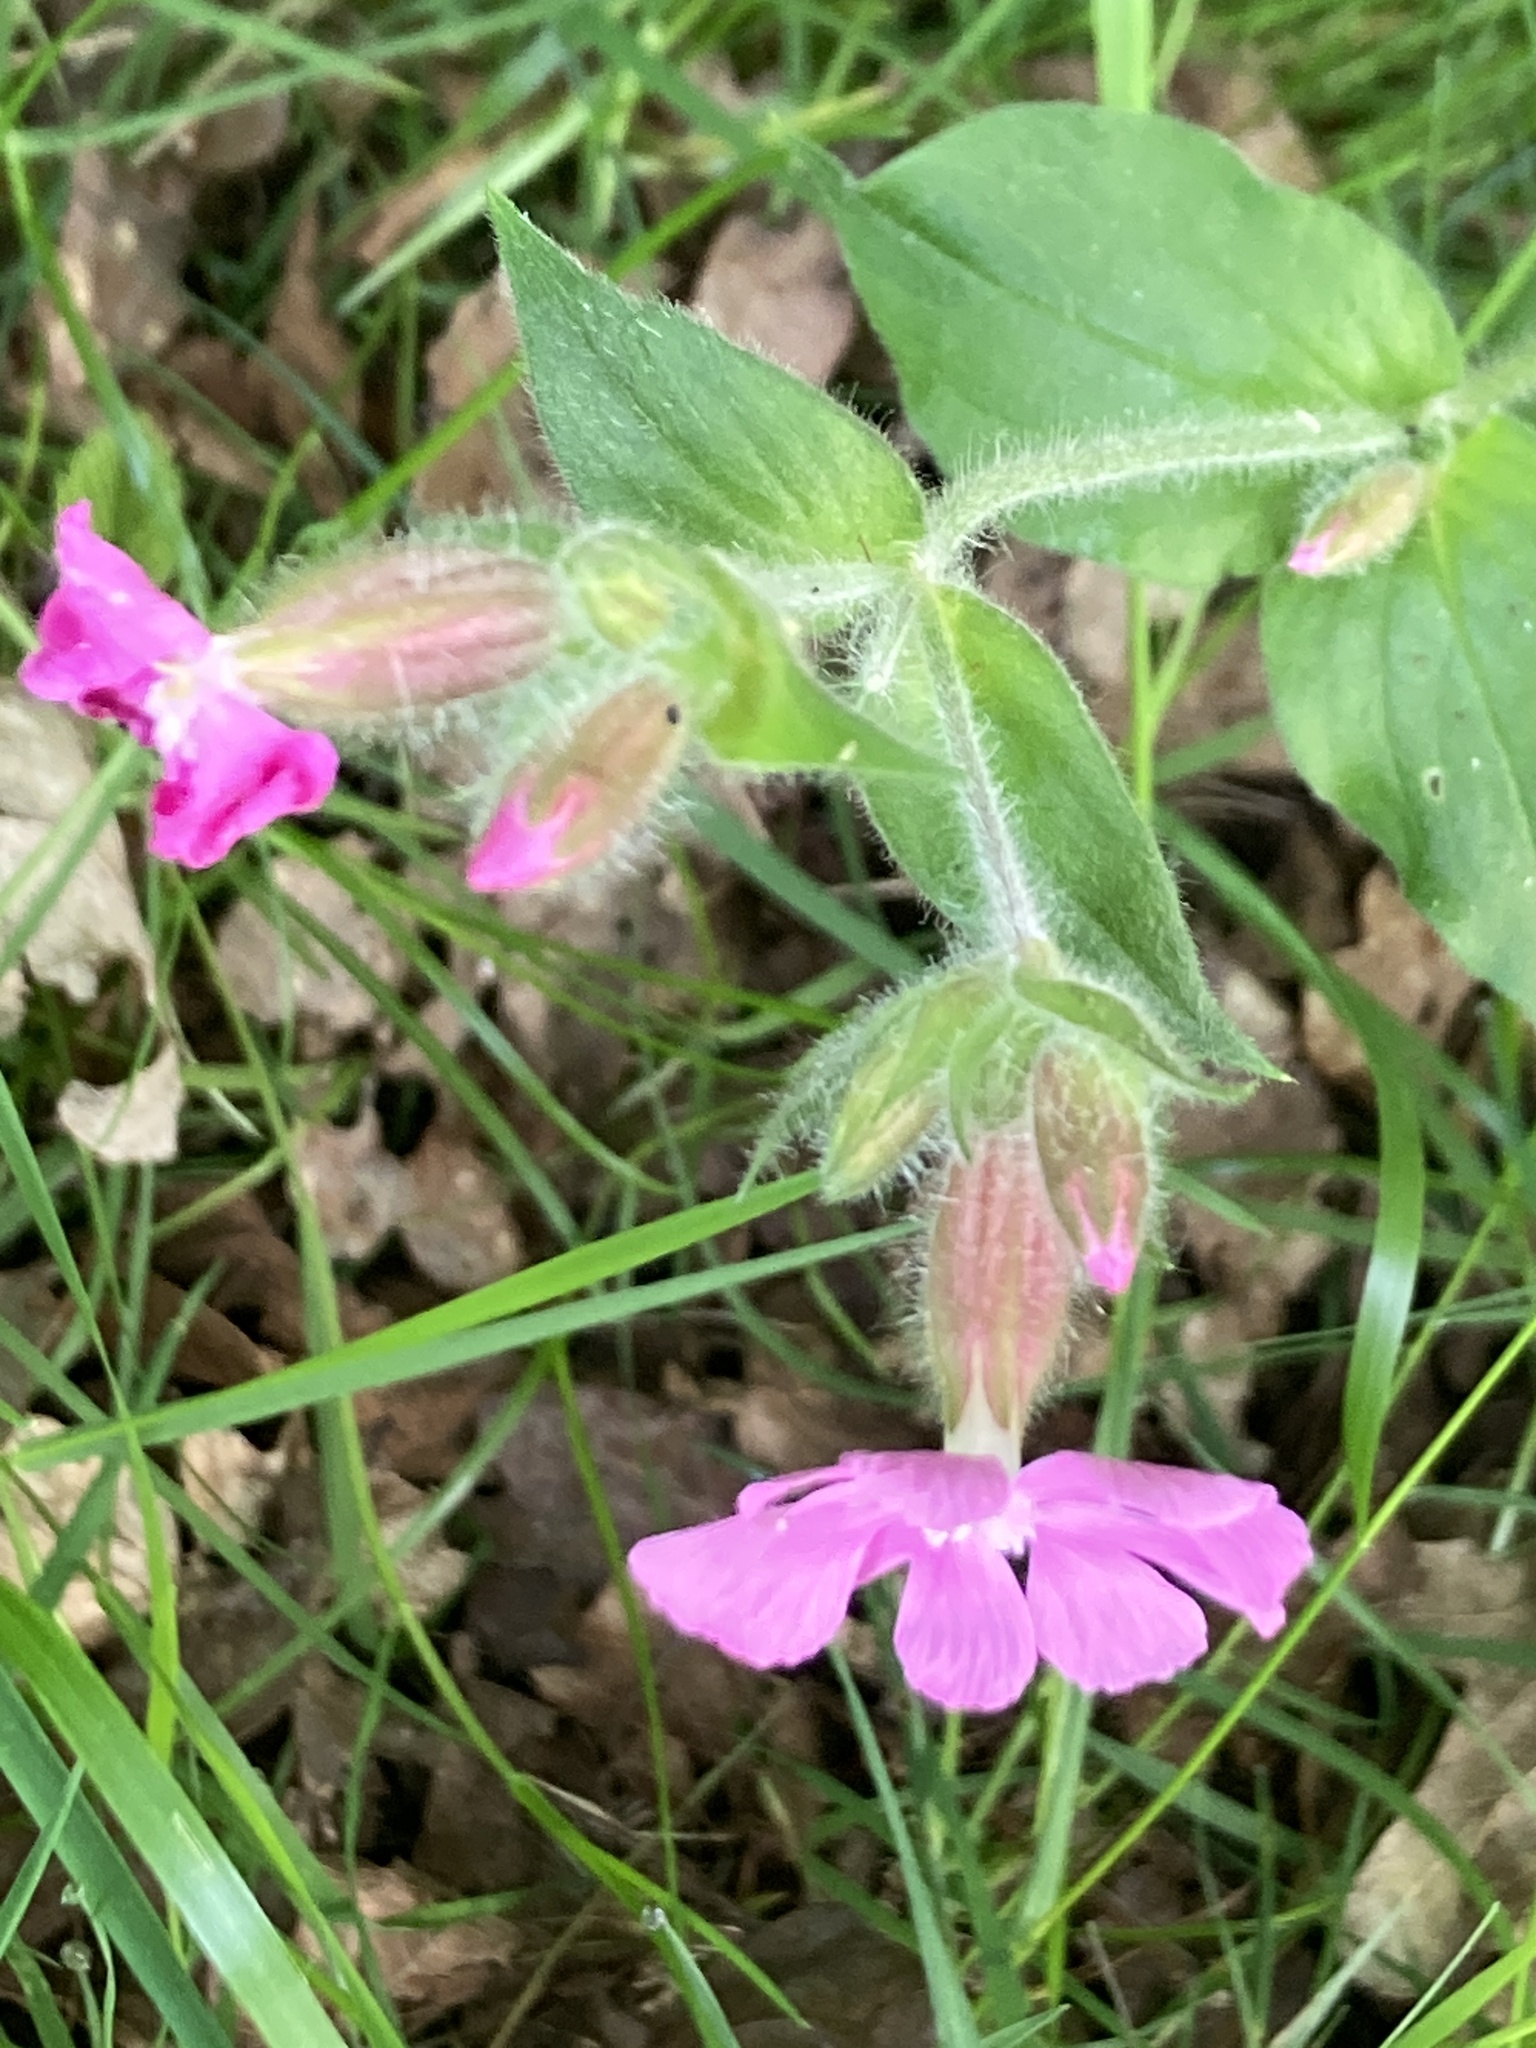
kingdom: Plantae
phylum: Tracheophyta
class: Magnoliopsida
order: Caryophyllales
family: Caryophyllaceae
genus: Silene
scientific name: Silene dioica
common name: Red campion
